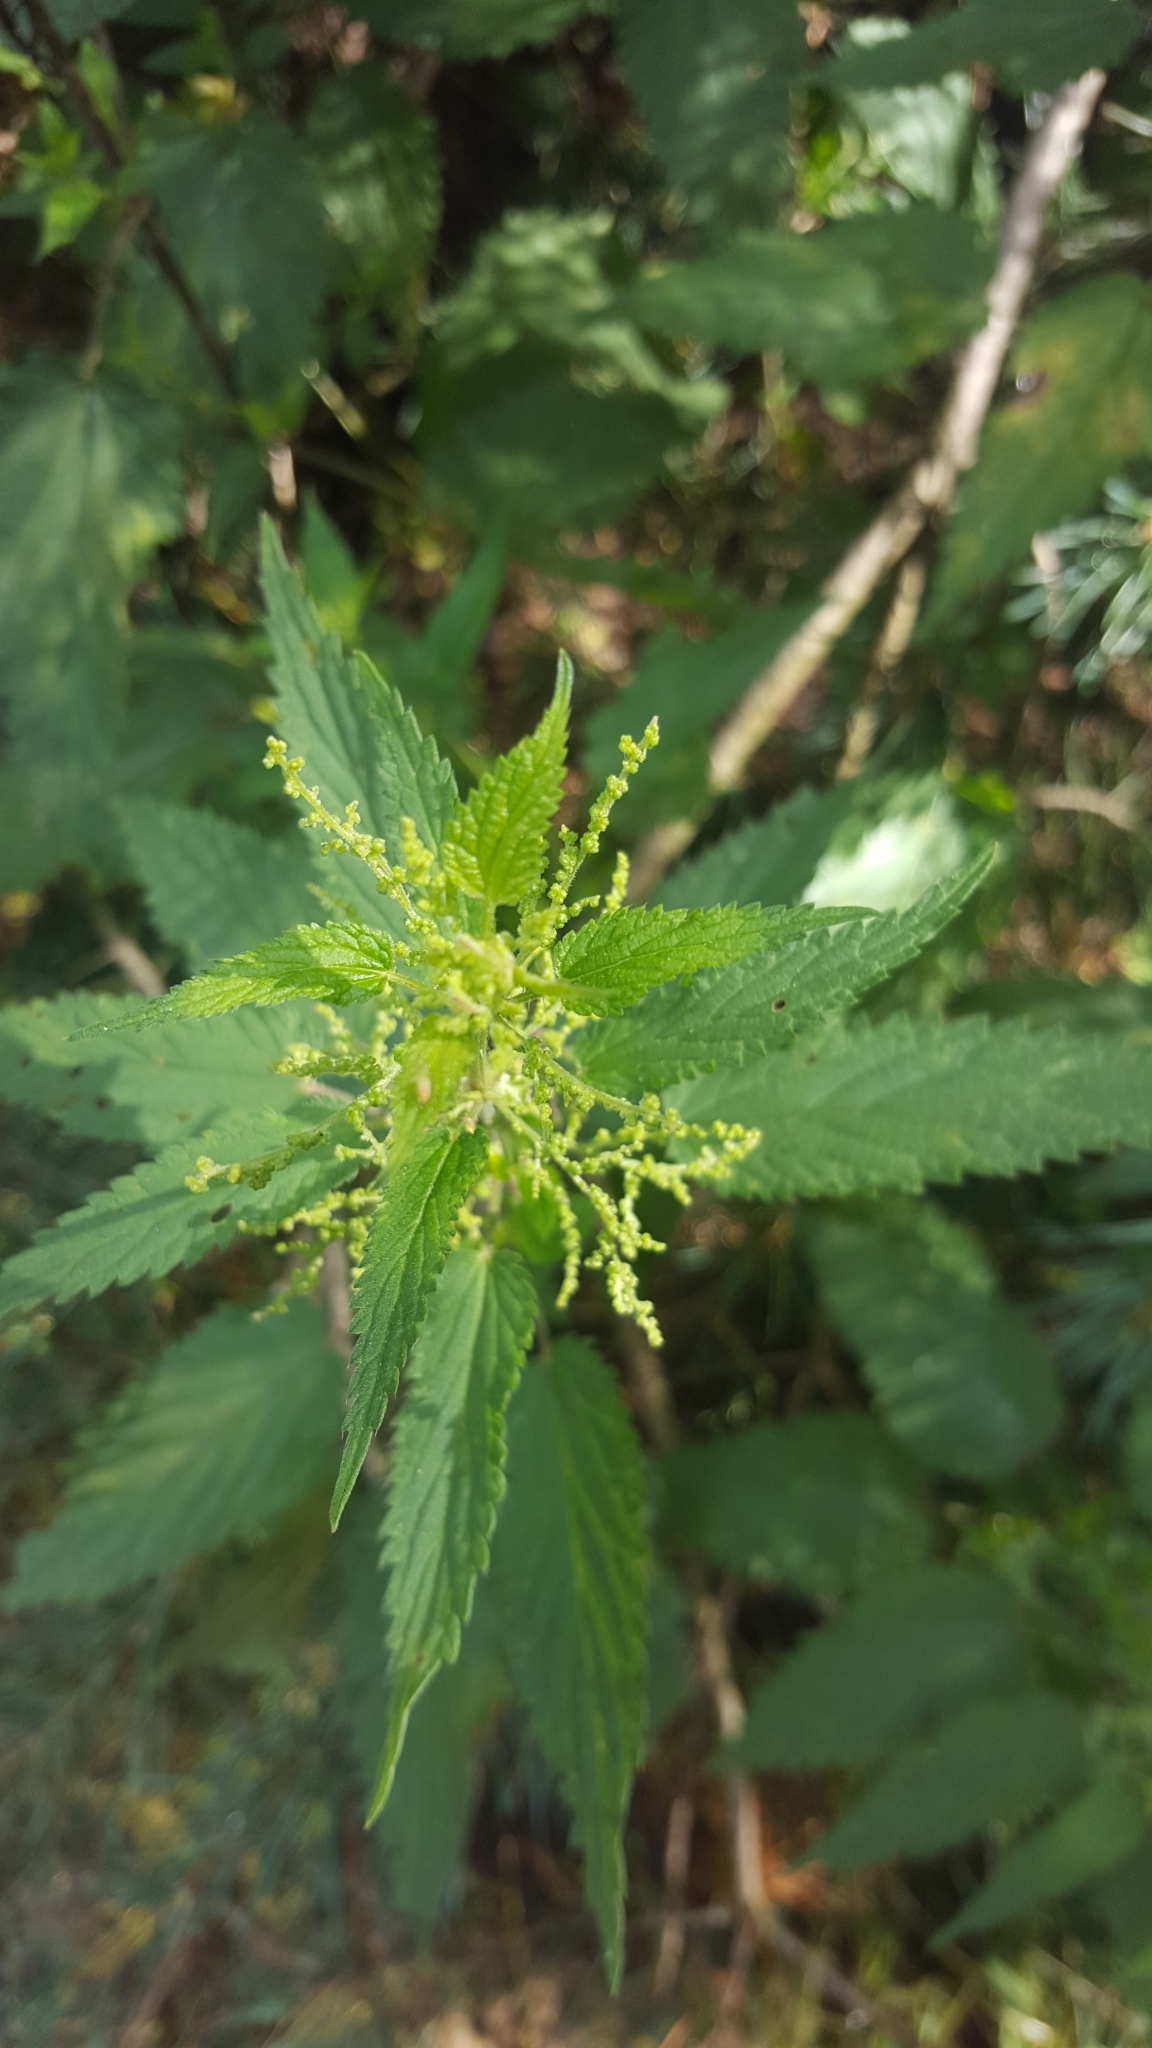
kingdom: Plantae
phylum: Tracheophyta
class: Magnoliopsida
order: Rosales
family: Urticaceae
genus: Urtica
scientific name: Urtica dioica
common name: Common nettle
